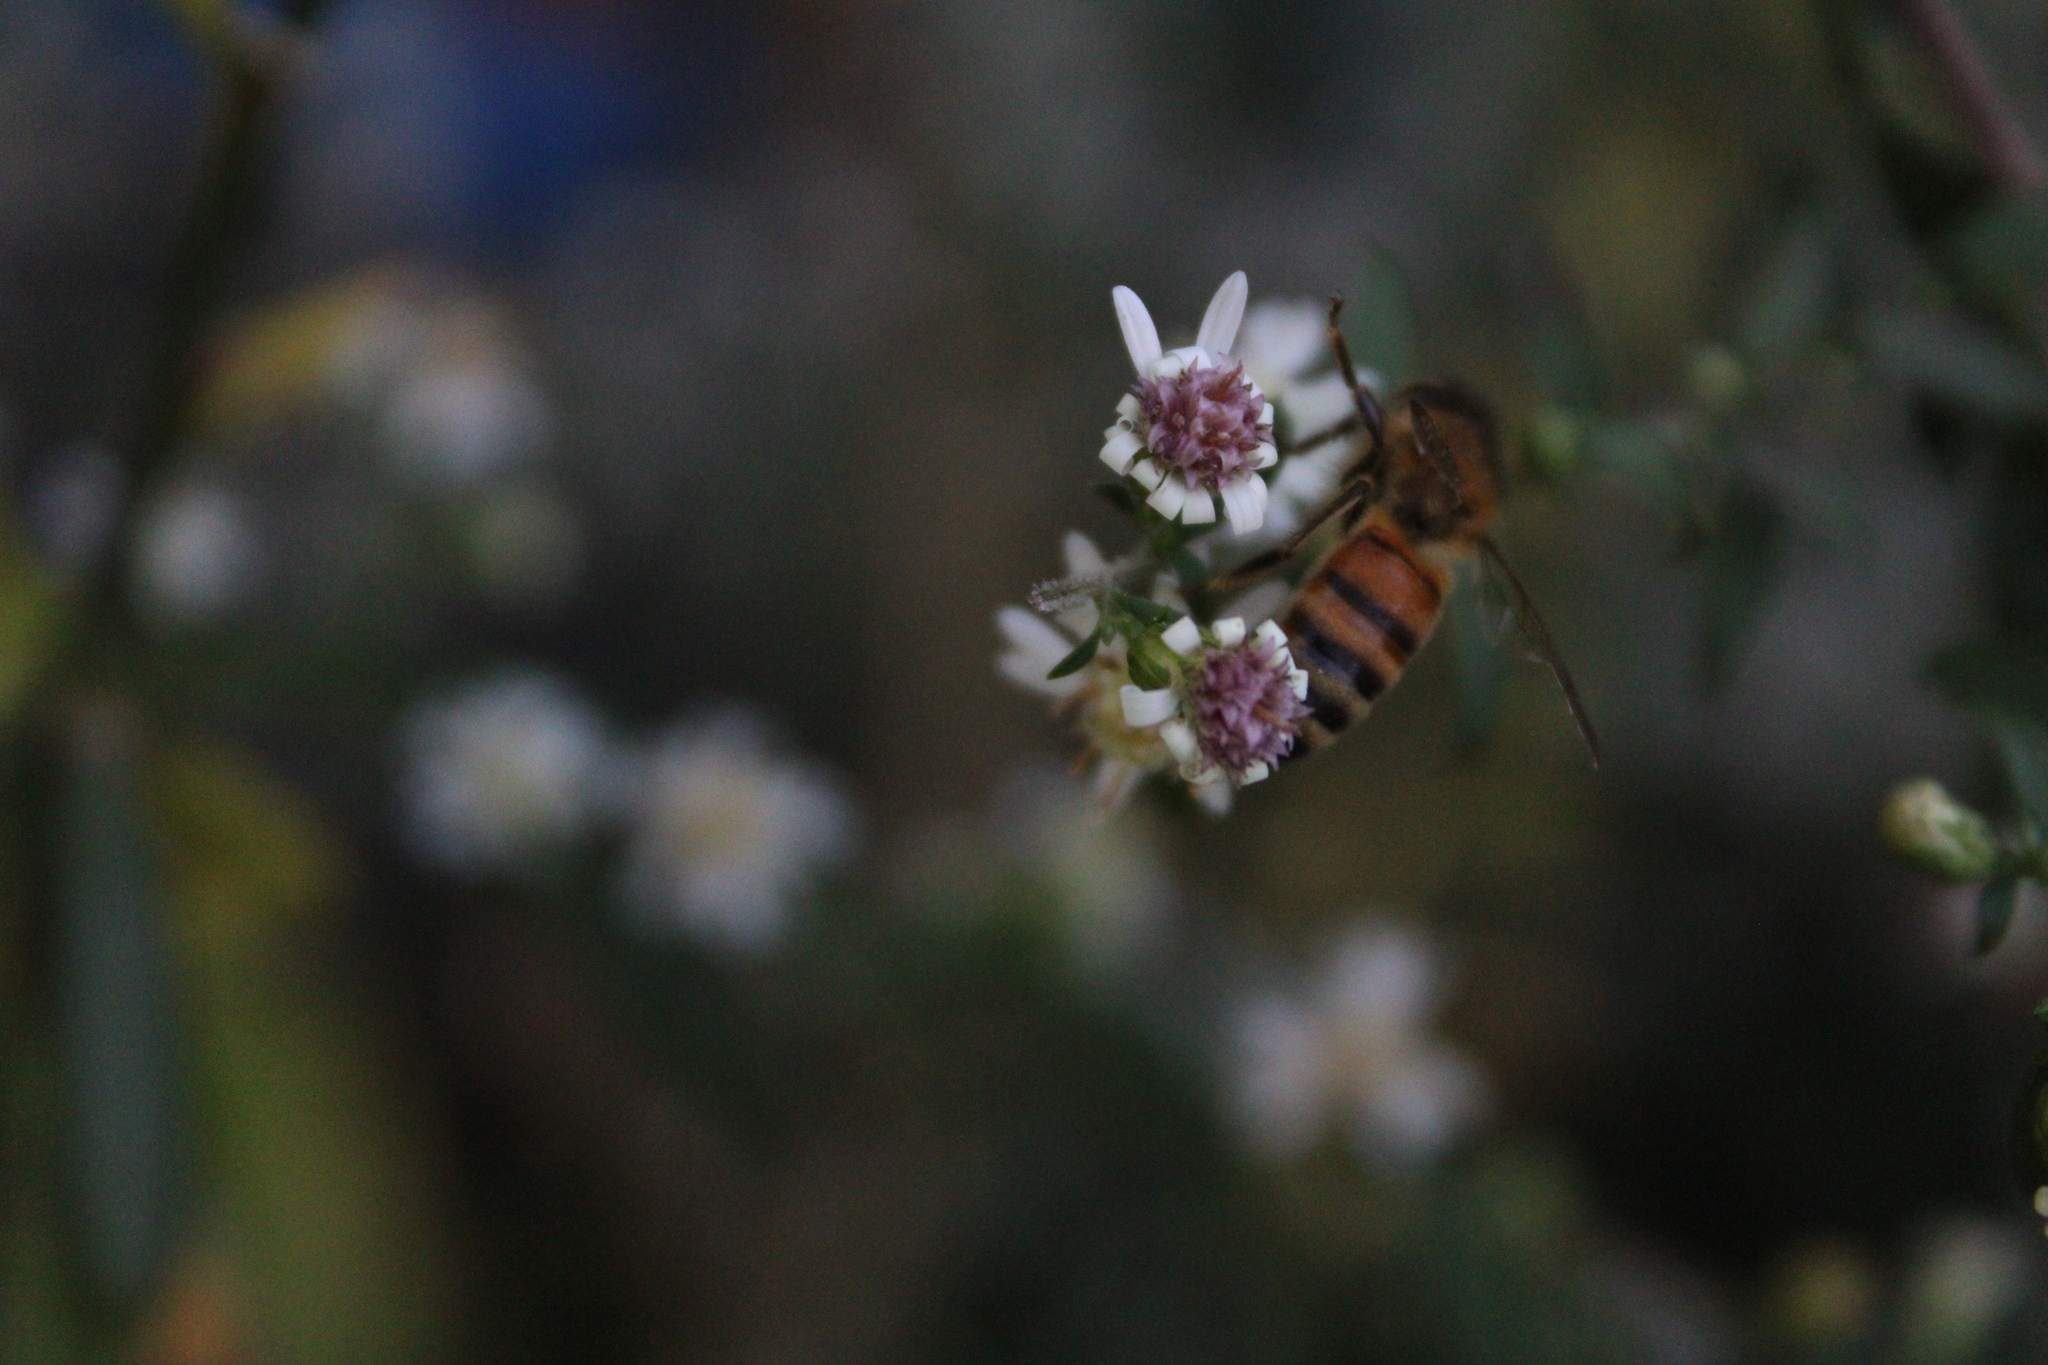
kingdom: Animalia
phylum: Arthropoda
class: Insecta
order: Hymenoptera
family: Apidae
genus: Apis
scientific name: Apis mellifera
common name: Honey bee
